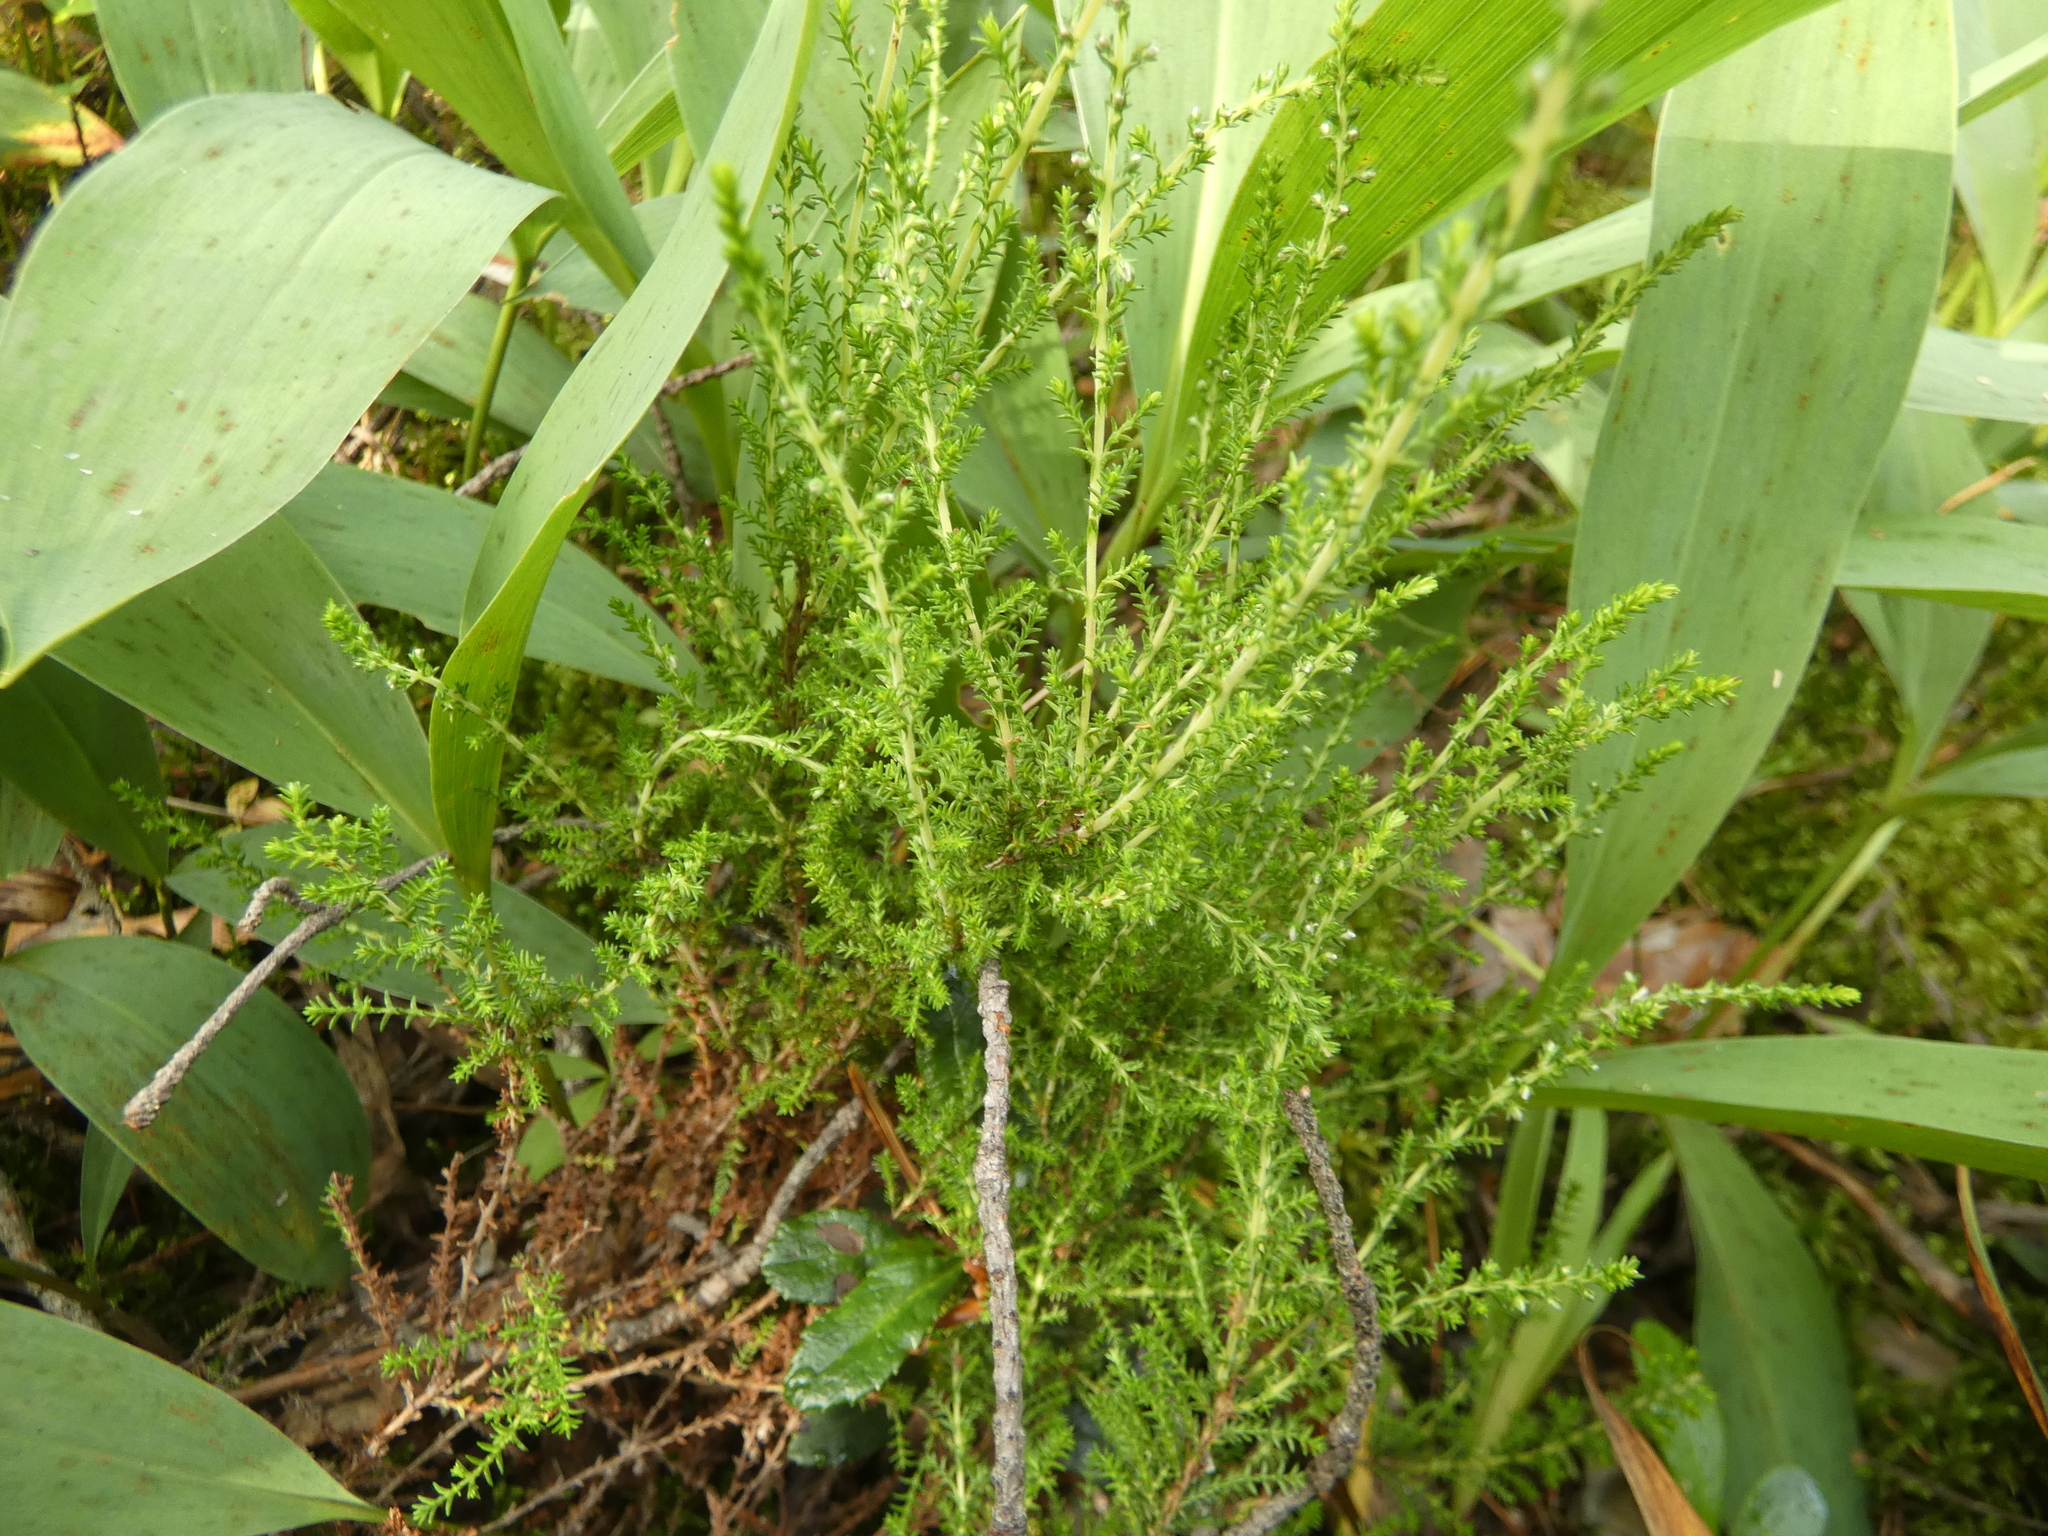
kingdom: Plantae
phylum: Tracheophyta
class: Magnoliopsida
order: Ericales
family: Ericaceae
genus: Calluna
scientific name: Calluna vulgaris
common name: Heather
